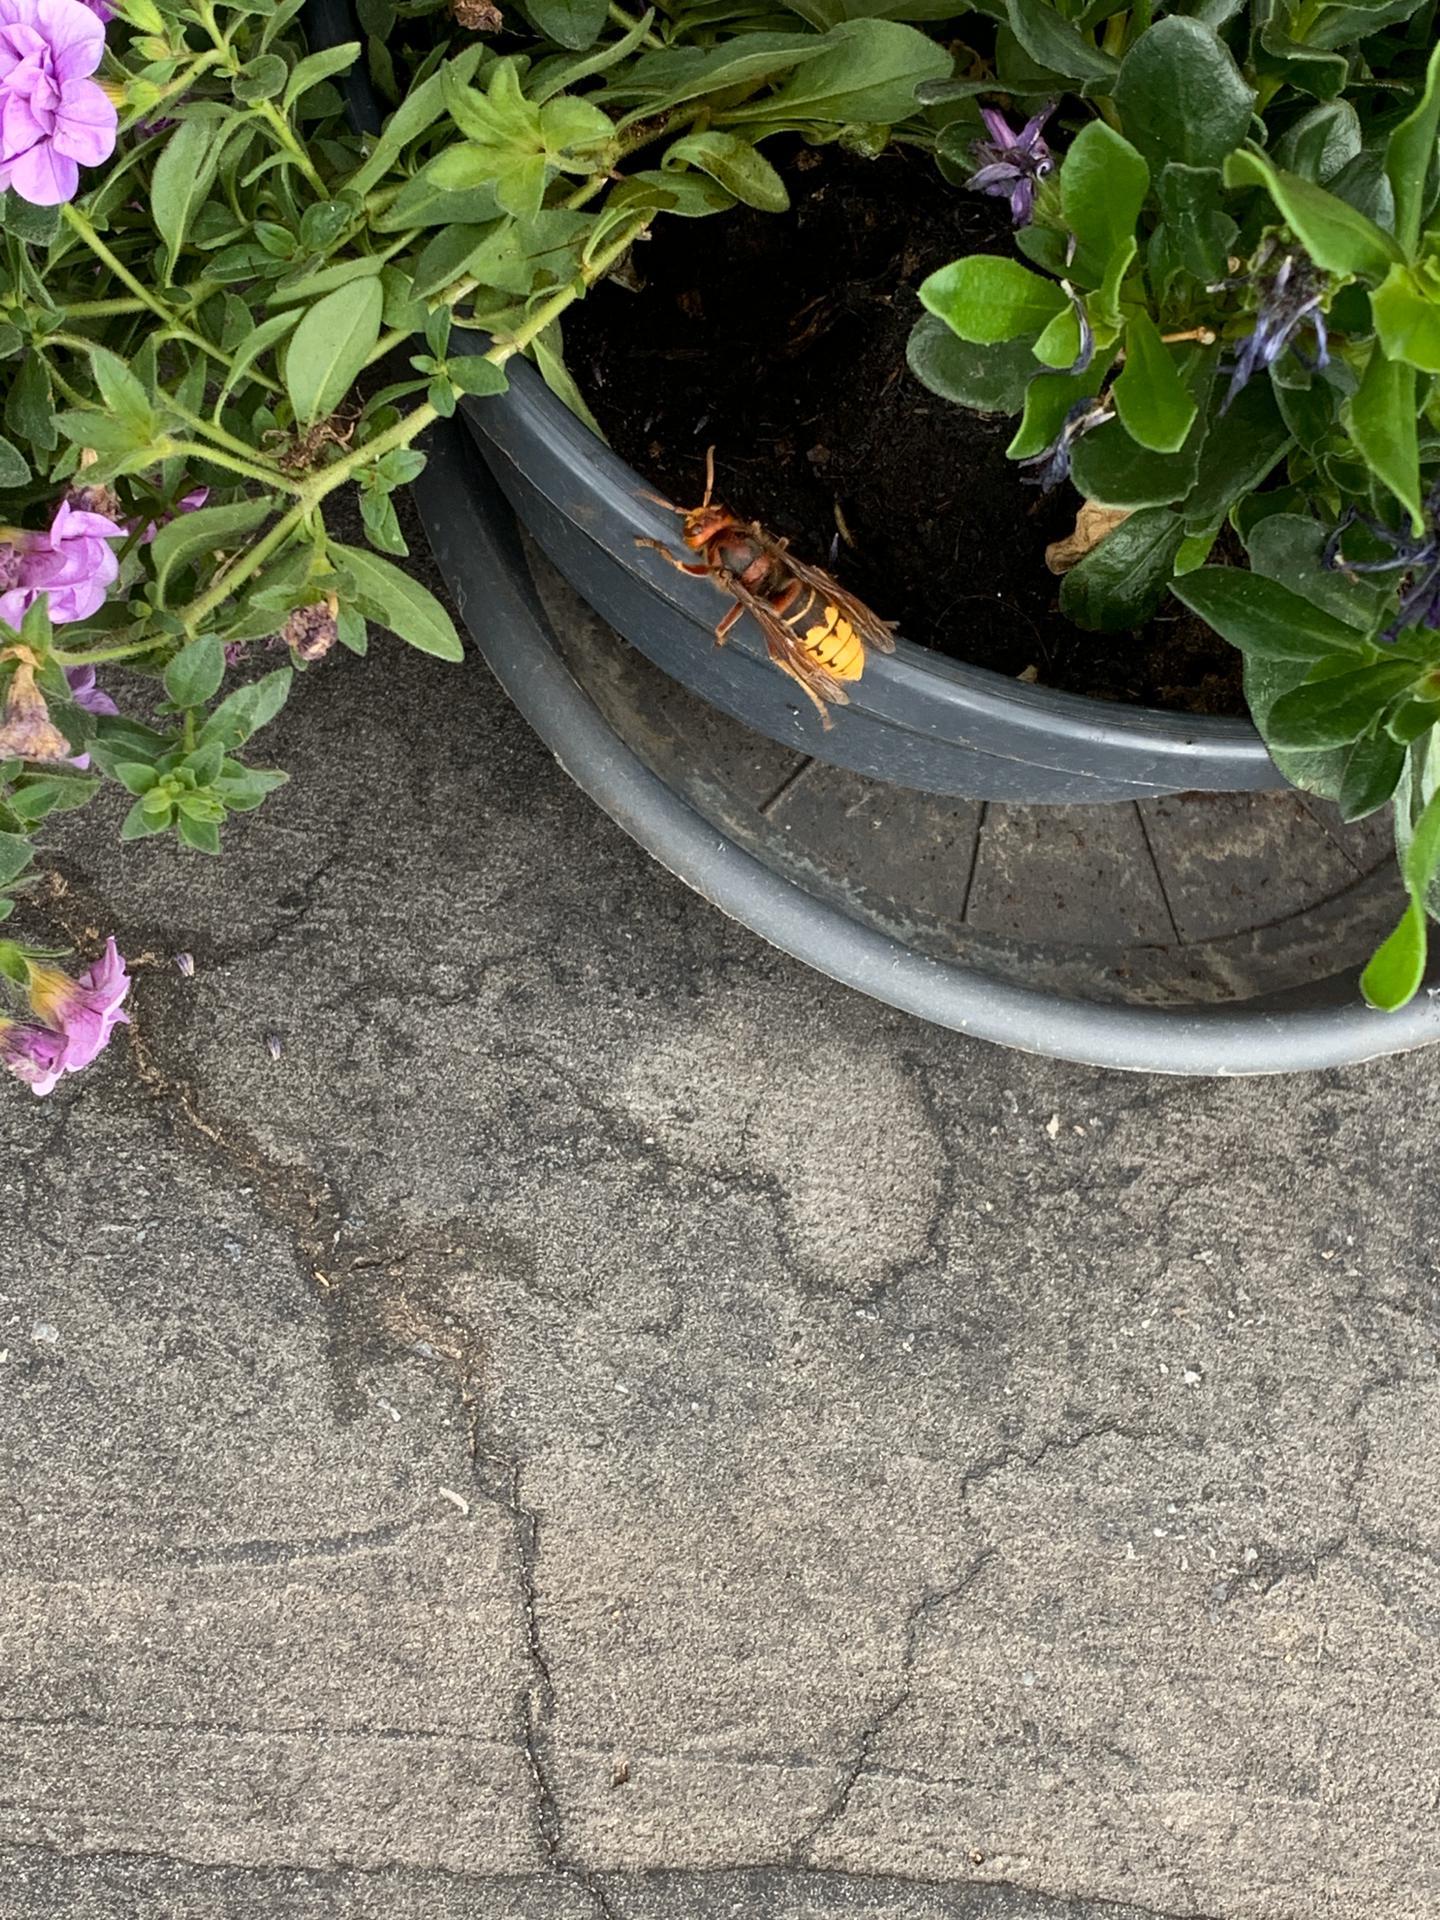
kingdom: Animalia
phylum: Arthropoda
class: Insecta
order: Hymenoptera
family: Vespidae
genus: Vespa
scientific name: Vespa crabro
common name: Hornet
